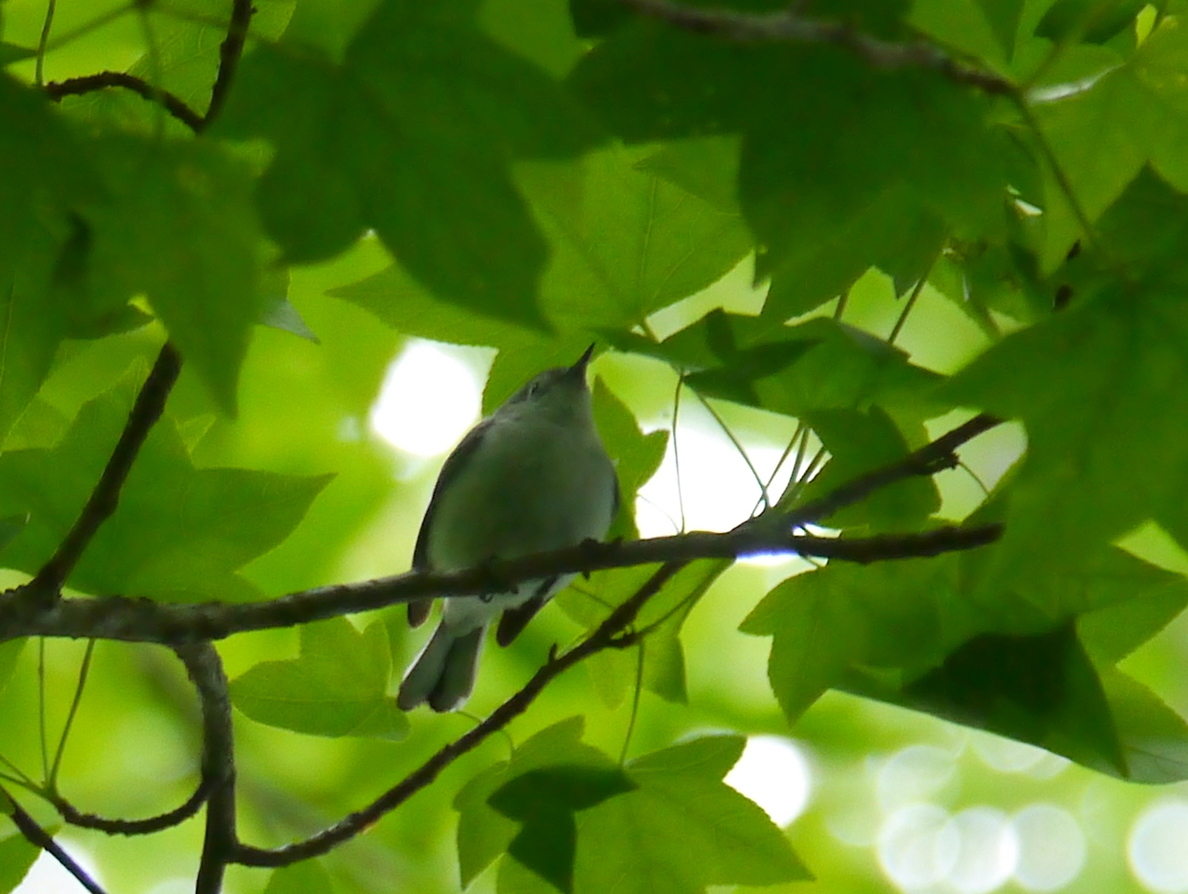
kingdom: Animalia
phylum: Chordata
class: Aves
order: Passeriformes
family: Polioptilidae
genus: Polioptila
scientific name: Polioptila caerulea
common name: Blue-gray gnatcatcher
